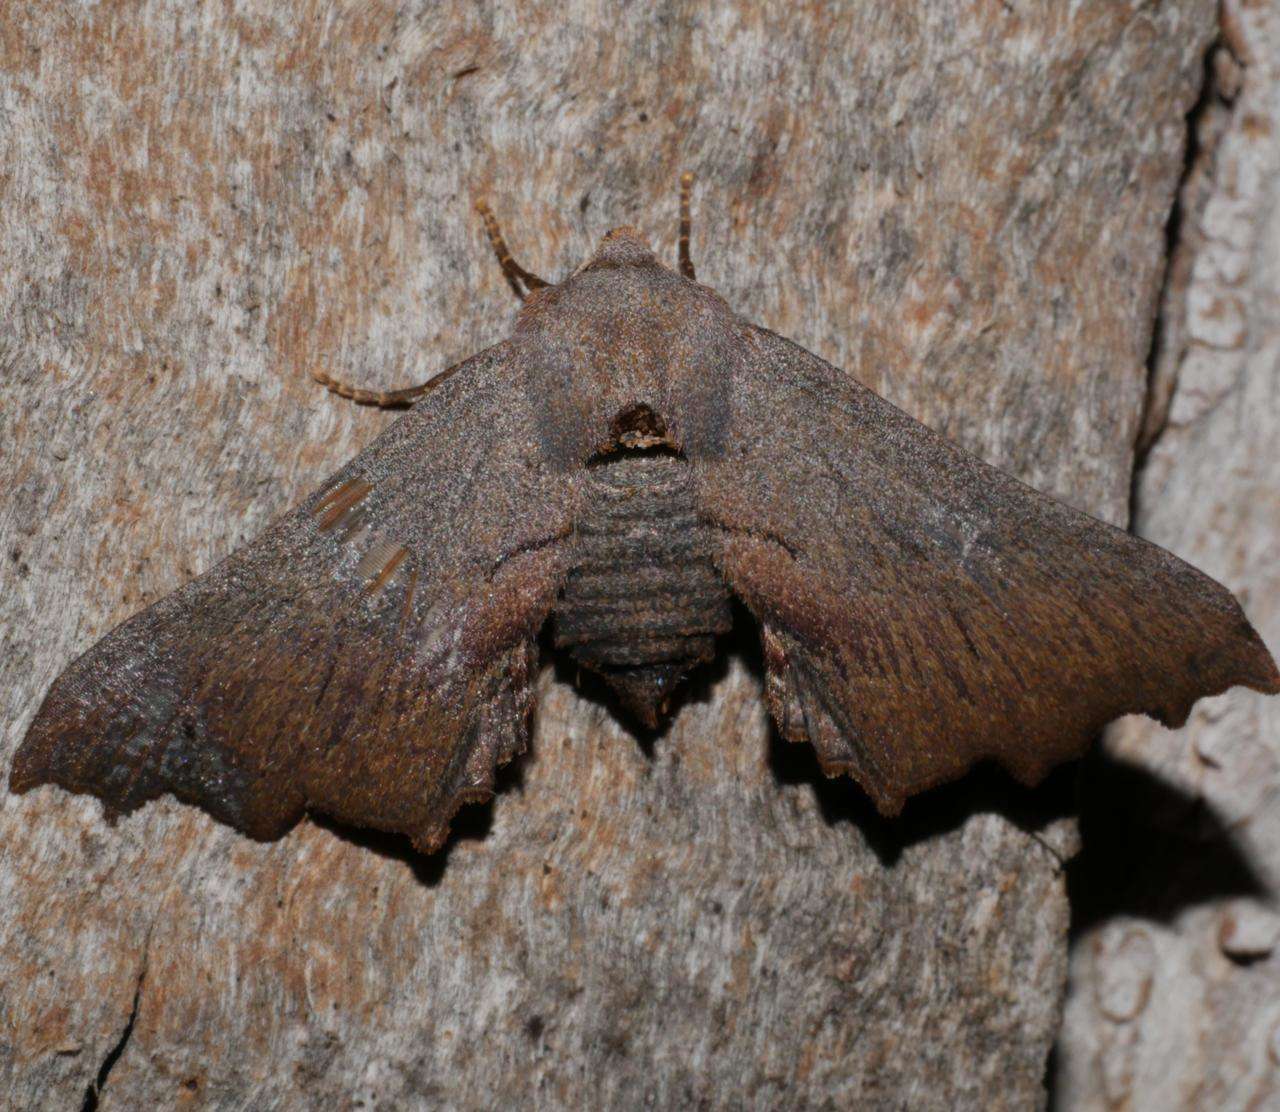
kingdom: Animalia
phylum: Arthropoda
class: Insecta
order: Lepidoptera
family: Geometridae
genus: Amphiclasta
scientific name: Amphiclasta lygaea
